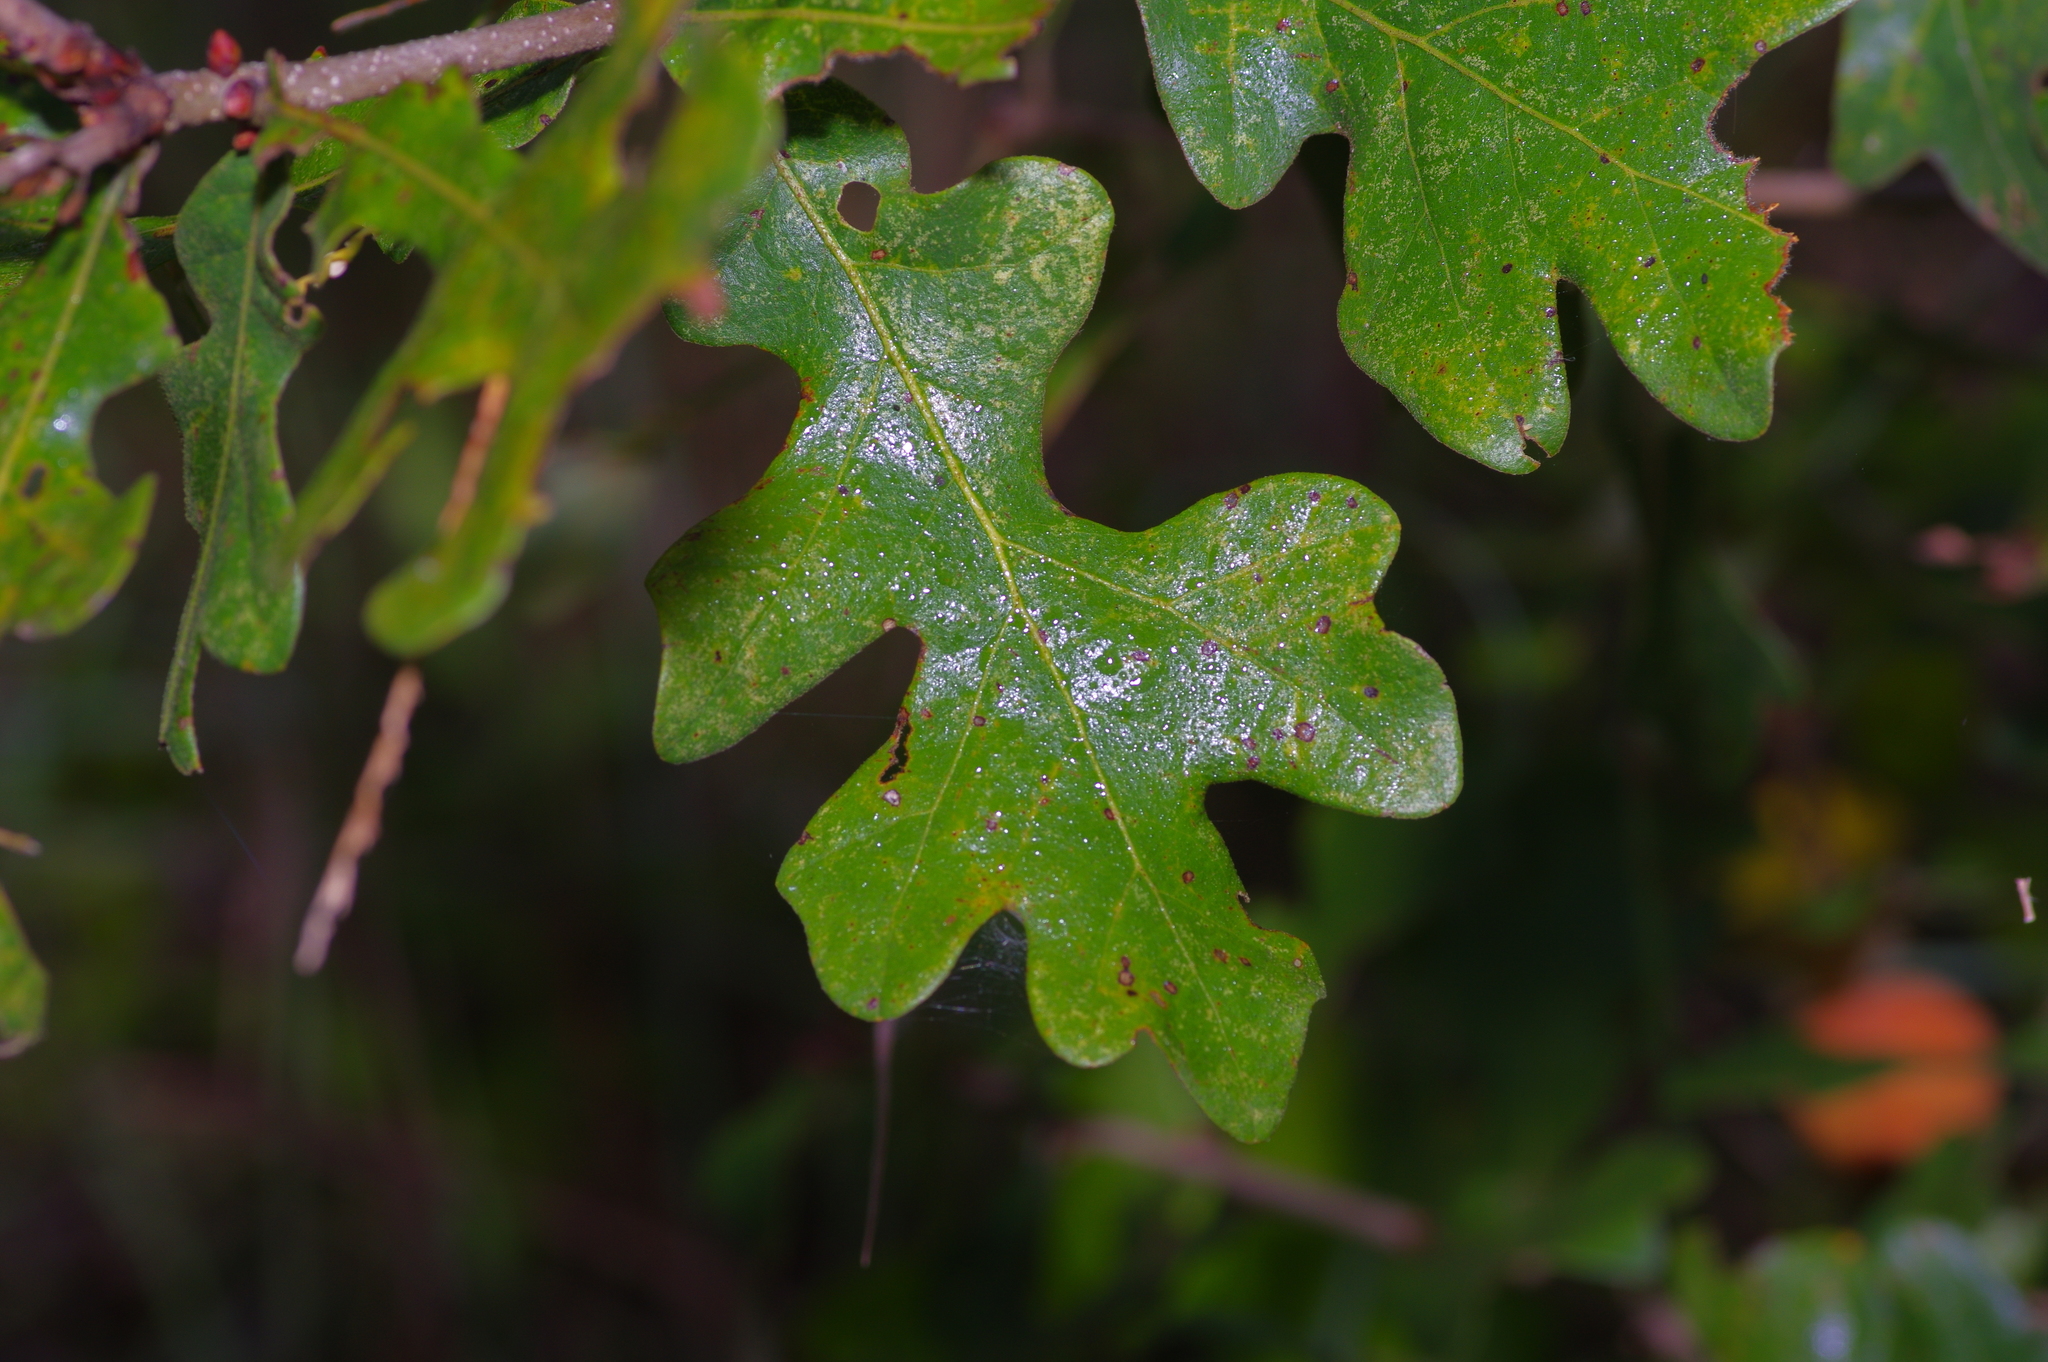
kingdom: Animalia
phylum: Arthropoda
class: Insecta
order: Hymenoptera
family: Cynipidae
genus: Disholcaspis
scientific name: Disholcaspis
